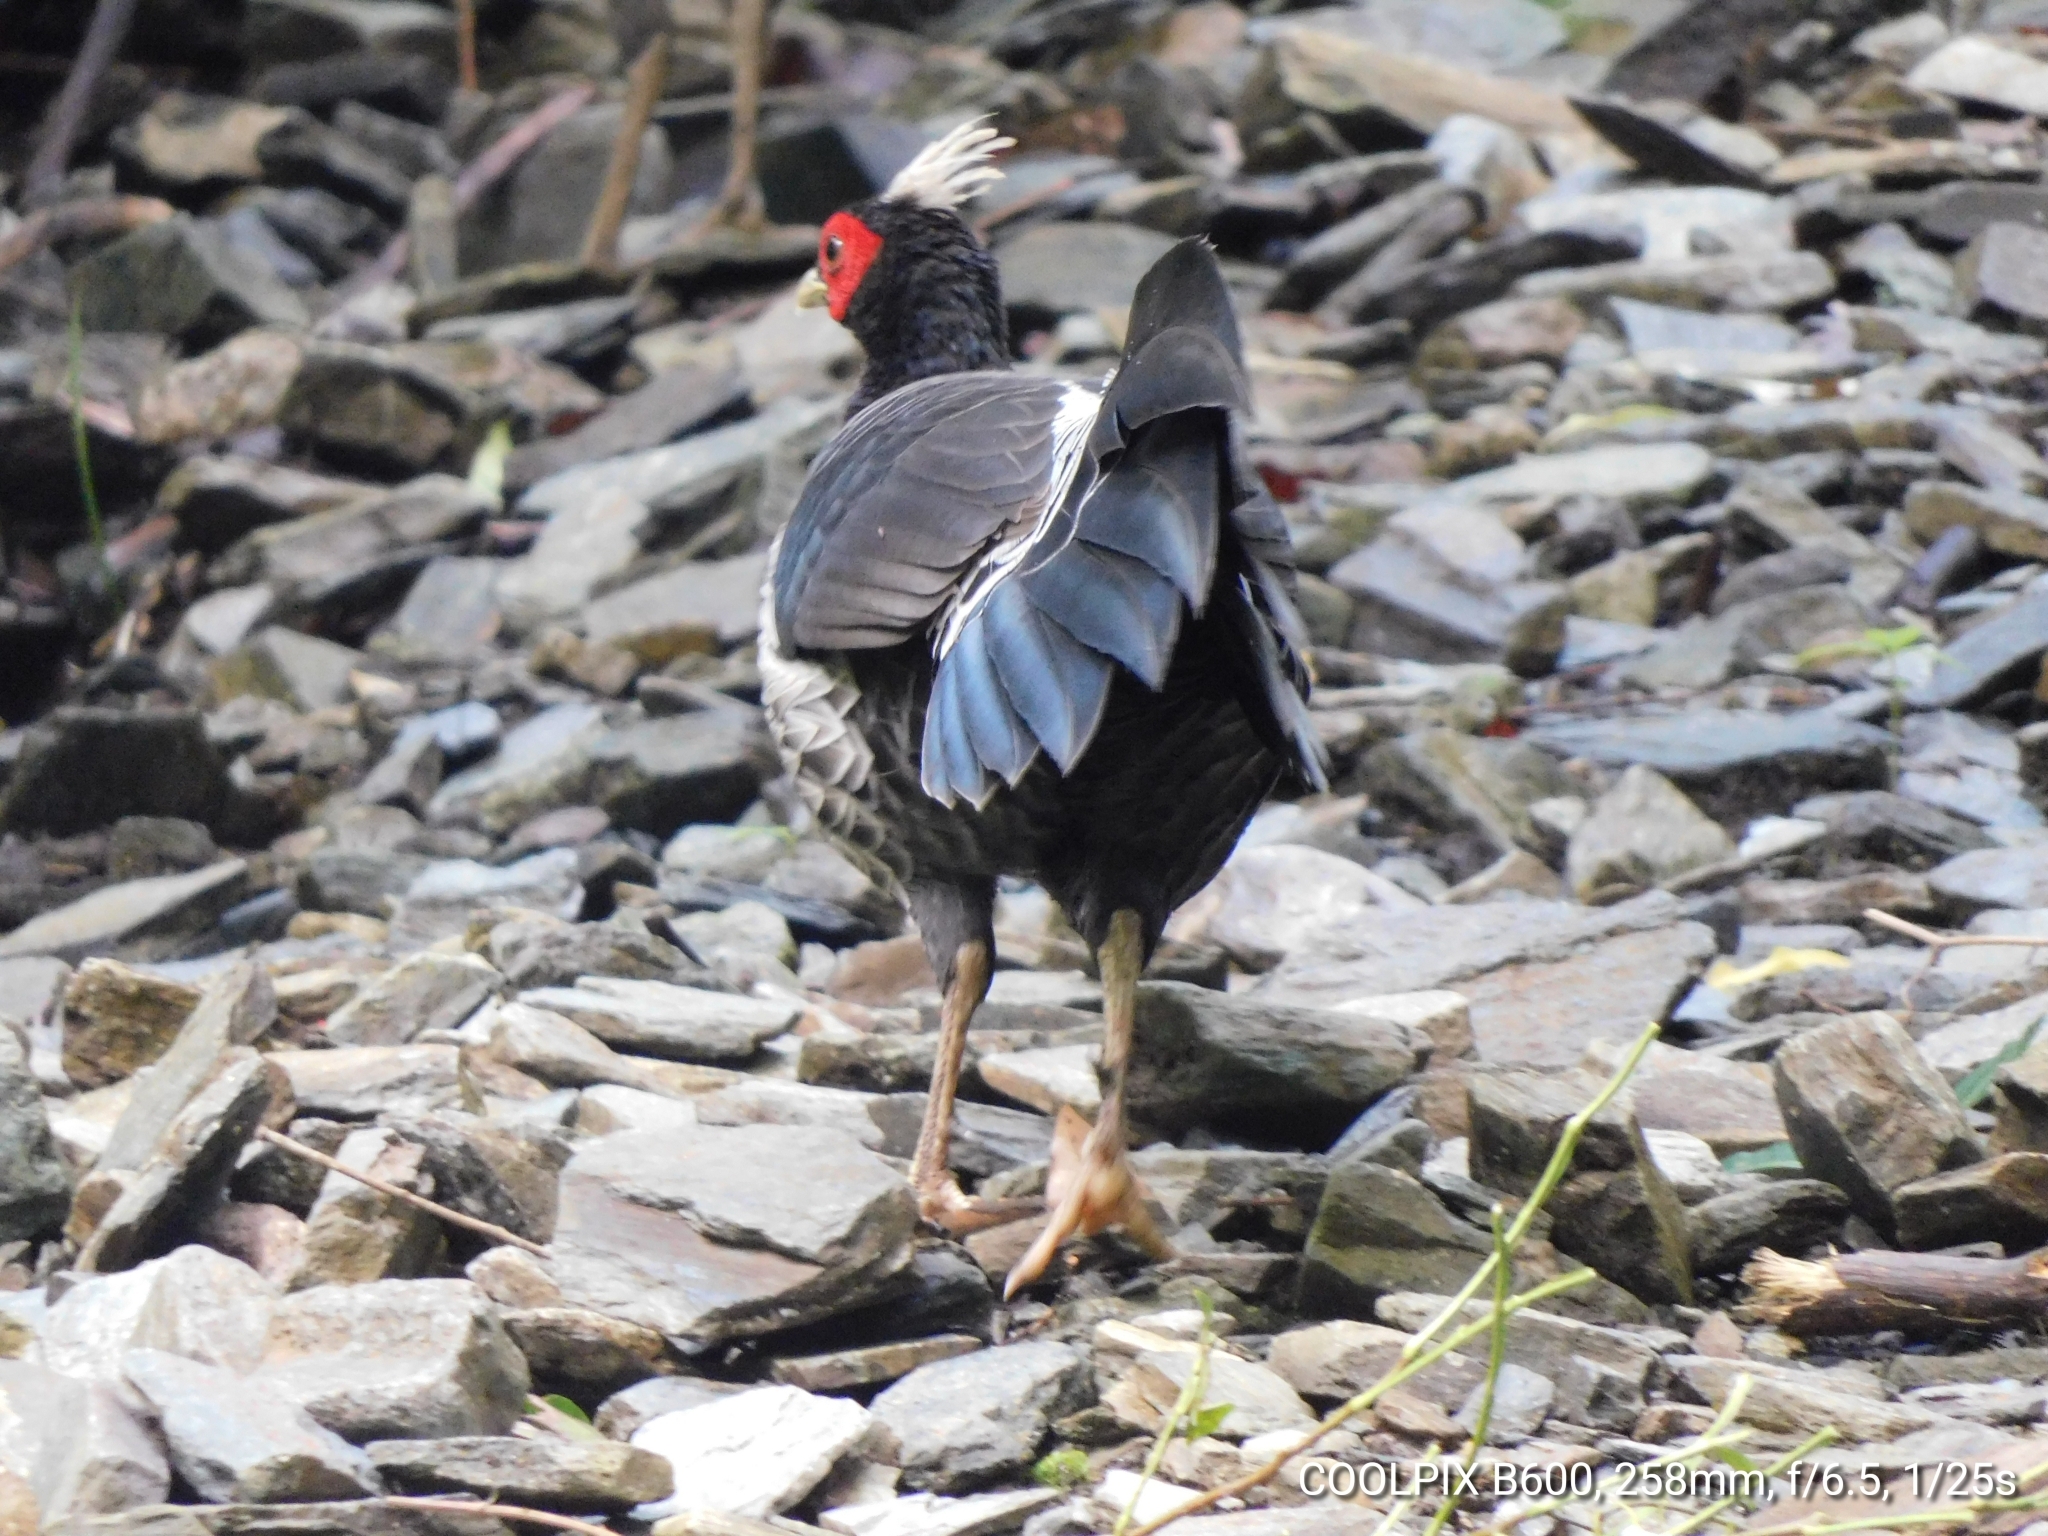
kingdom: Animalia
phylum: Chordata
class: Aves
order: Galliformes
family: Phasianidae
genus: Lophura
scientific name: Lophura leucomelanos
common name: Kalij pheasant
